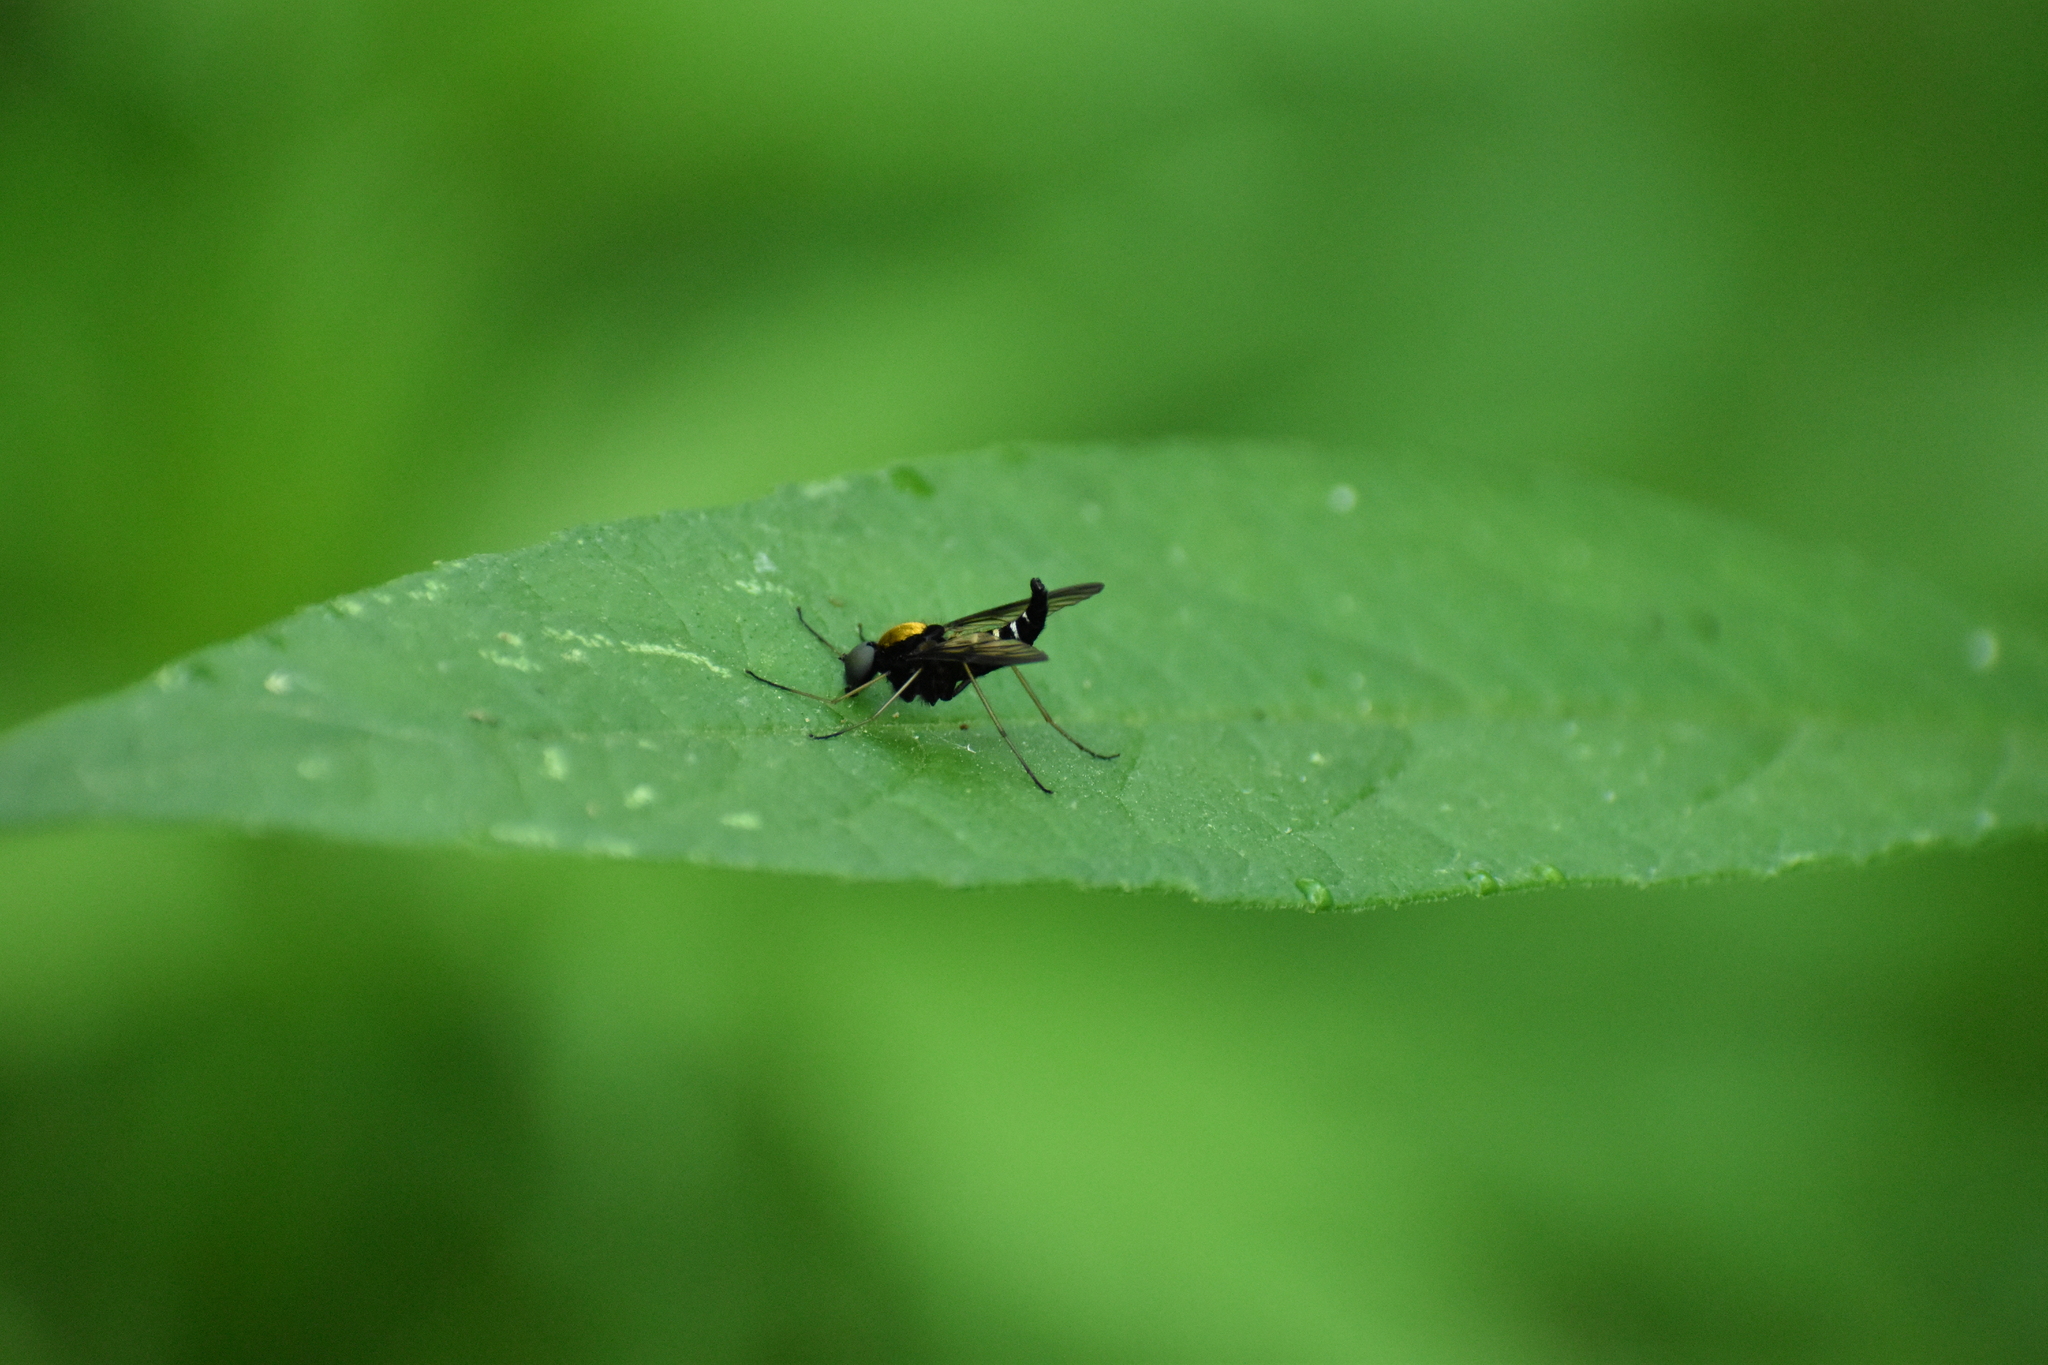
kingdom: Animalia
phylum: Arthropoda
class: Insecta
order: Diptera
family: Rhagionidae
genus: Chrysopilus
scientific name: Chrysopilus thoracicus
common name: Golden-backed snipe fly
